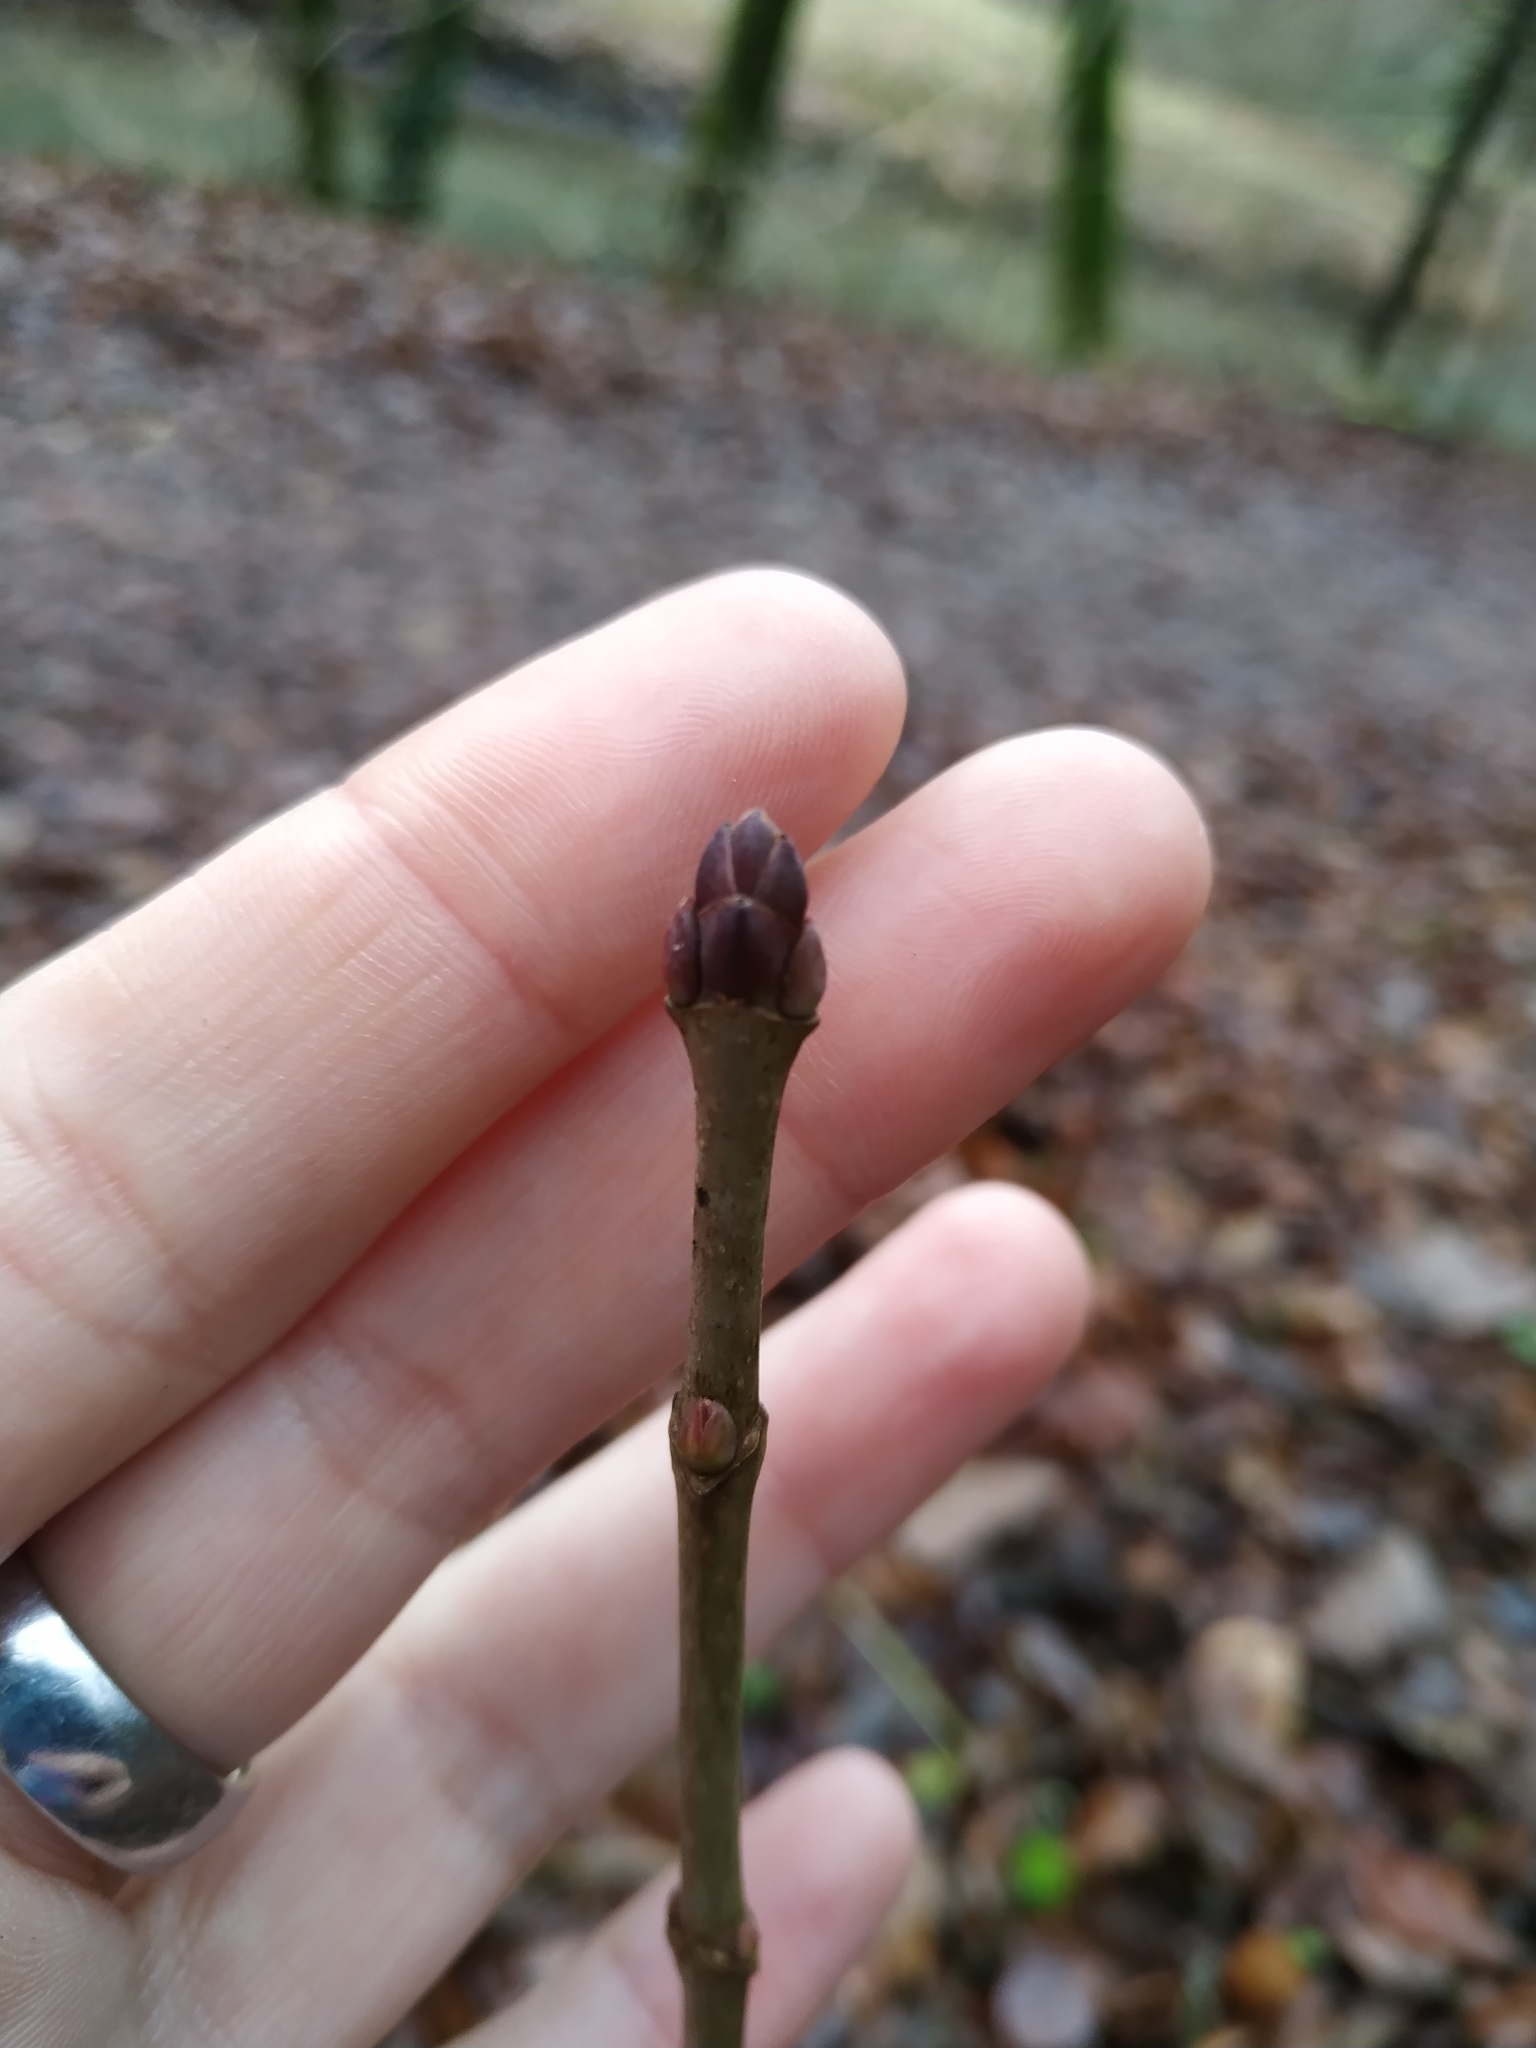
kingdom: Plantae
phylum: Tracheophyta
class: Magnoliopsida
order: Sapindales
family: Sapindaceae
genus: Acer
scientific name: Acer platanoides
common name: Norway maple
